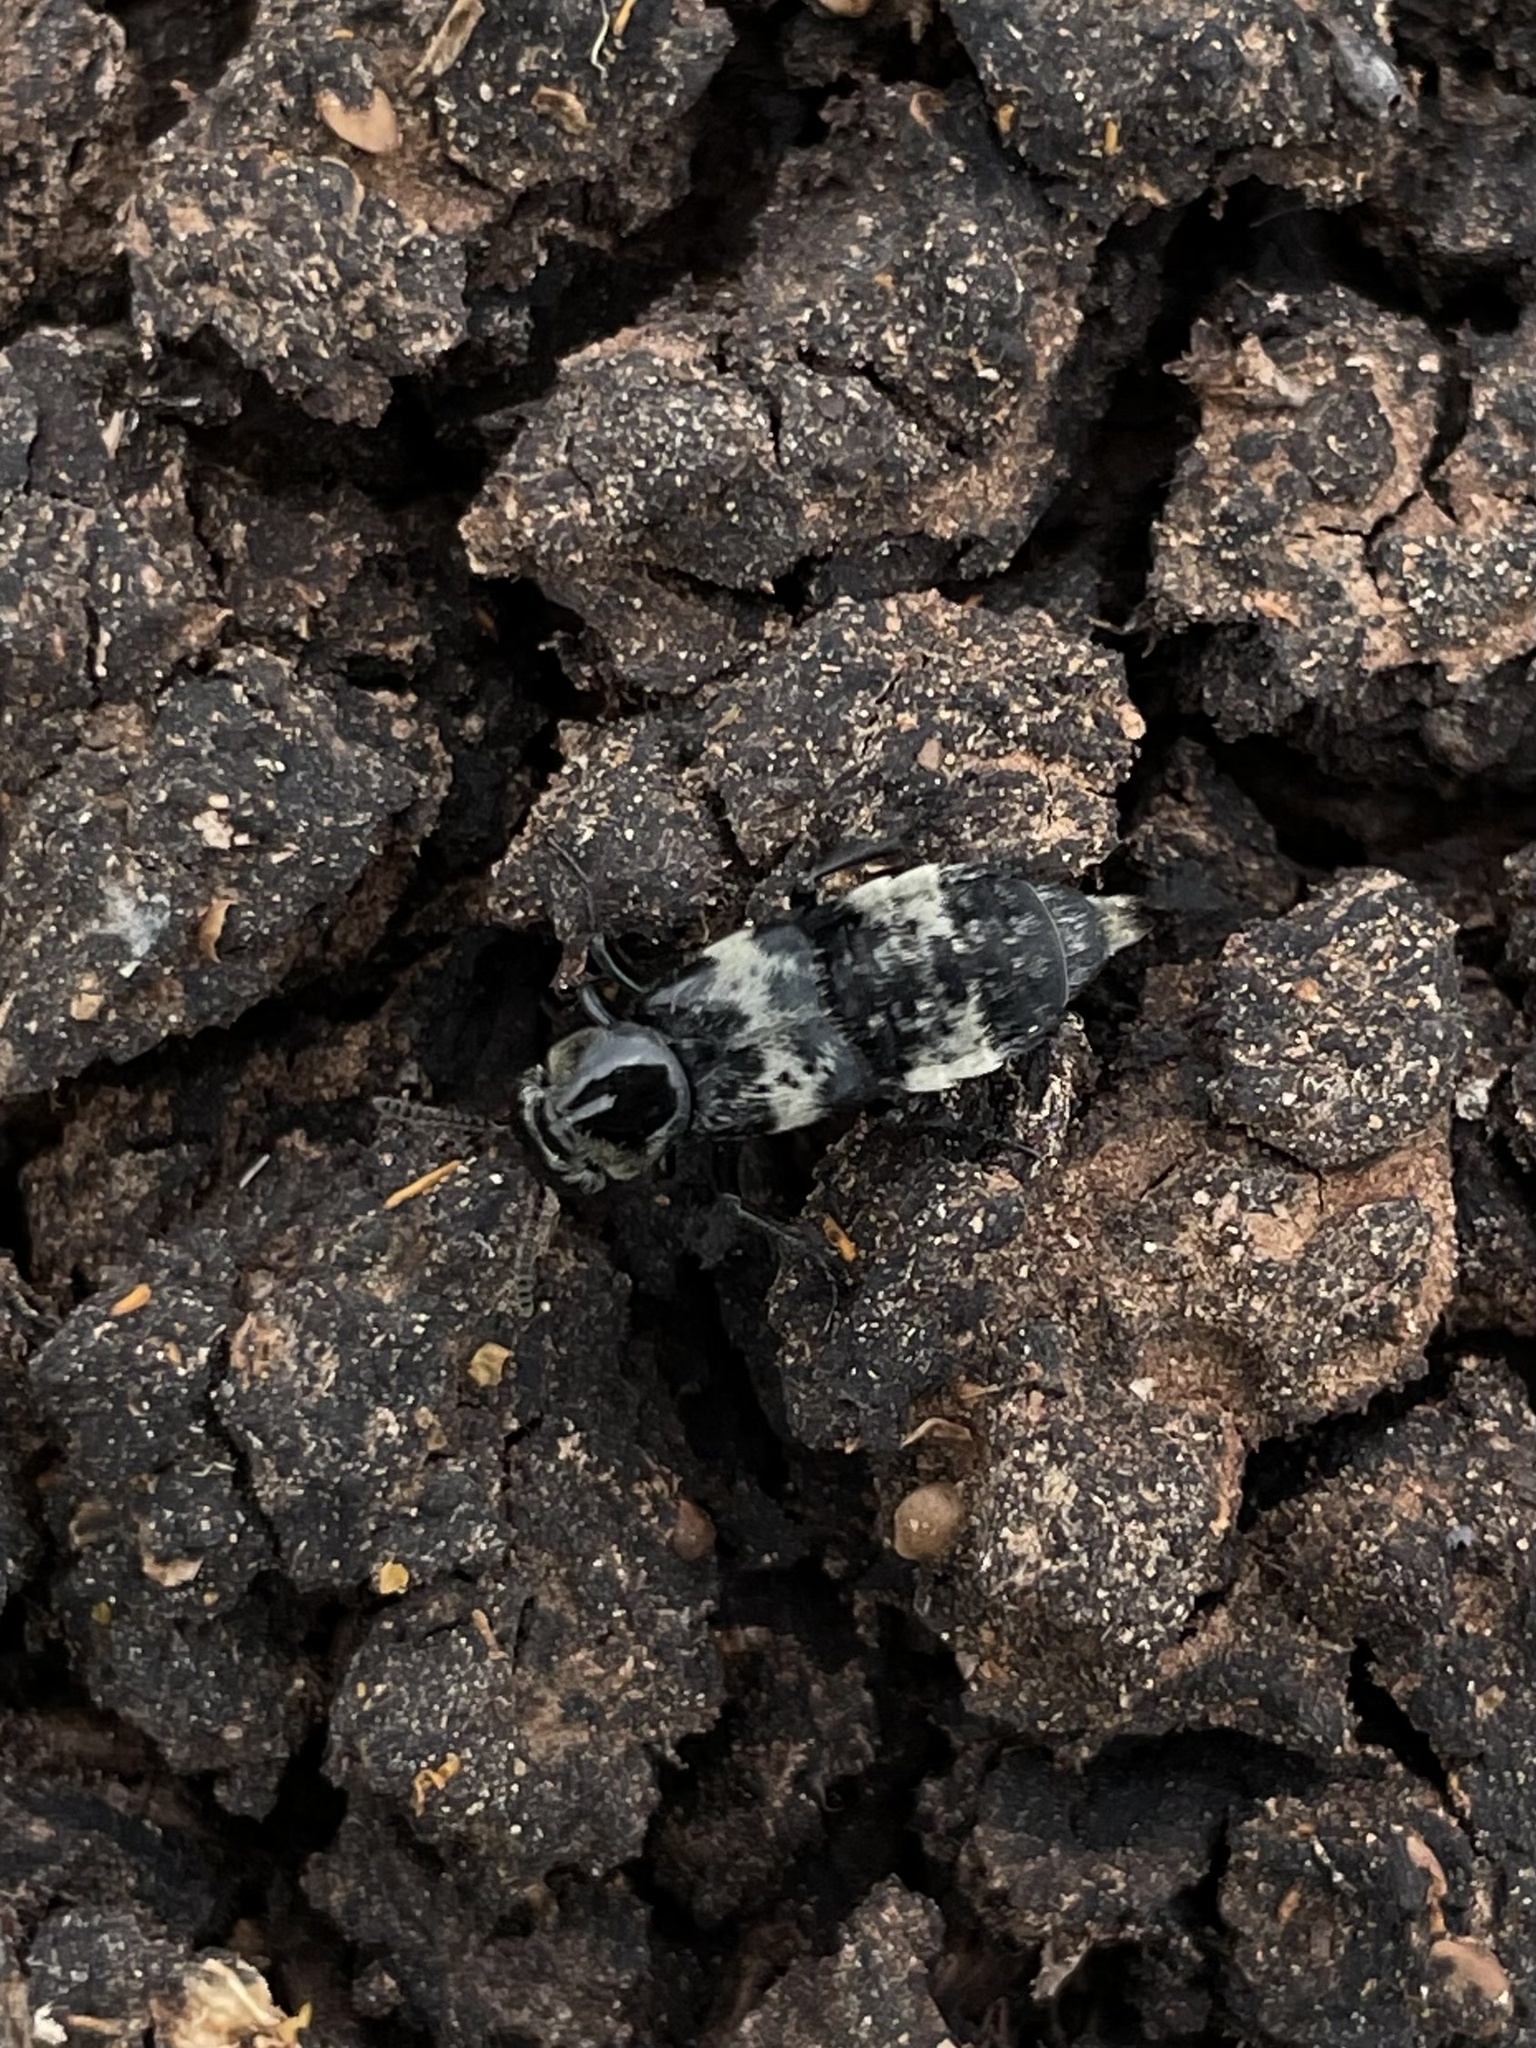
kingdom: Animalia
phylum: Arthropoda
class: Insecta
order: Coleoptera
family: Staphylinidae
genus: Creophilus
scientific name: Creophilus maxillosus
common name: Hairy rove beetle
